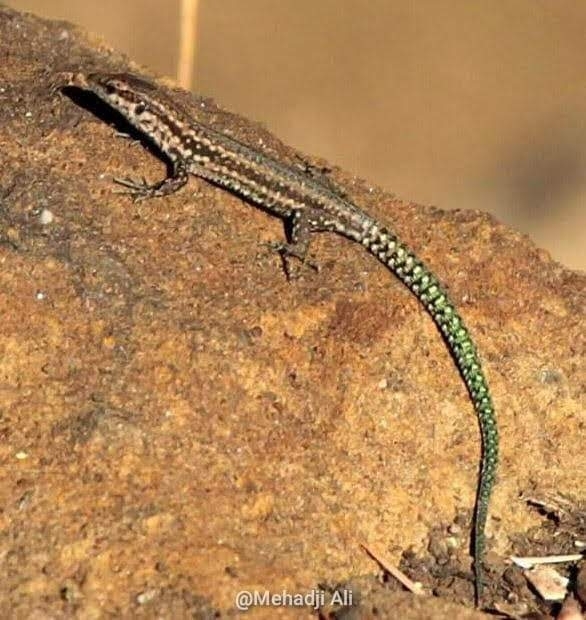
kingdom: Animalia
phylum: Chordata
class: Squamata
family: Lacertidae
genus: Podarcis
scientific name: Podarcis vaucheri
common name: Vaucher's wall lizard
